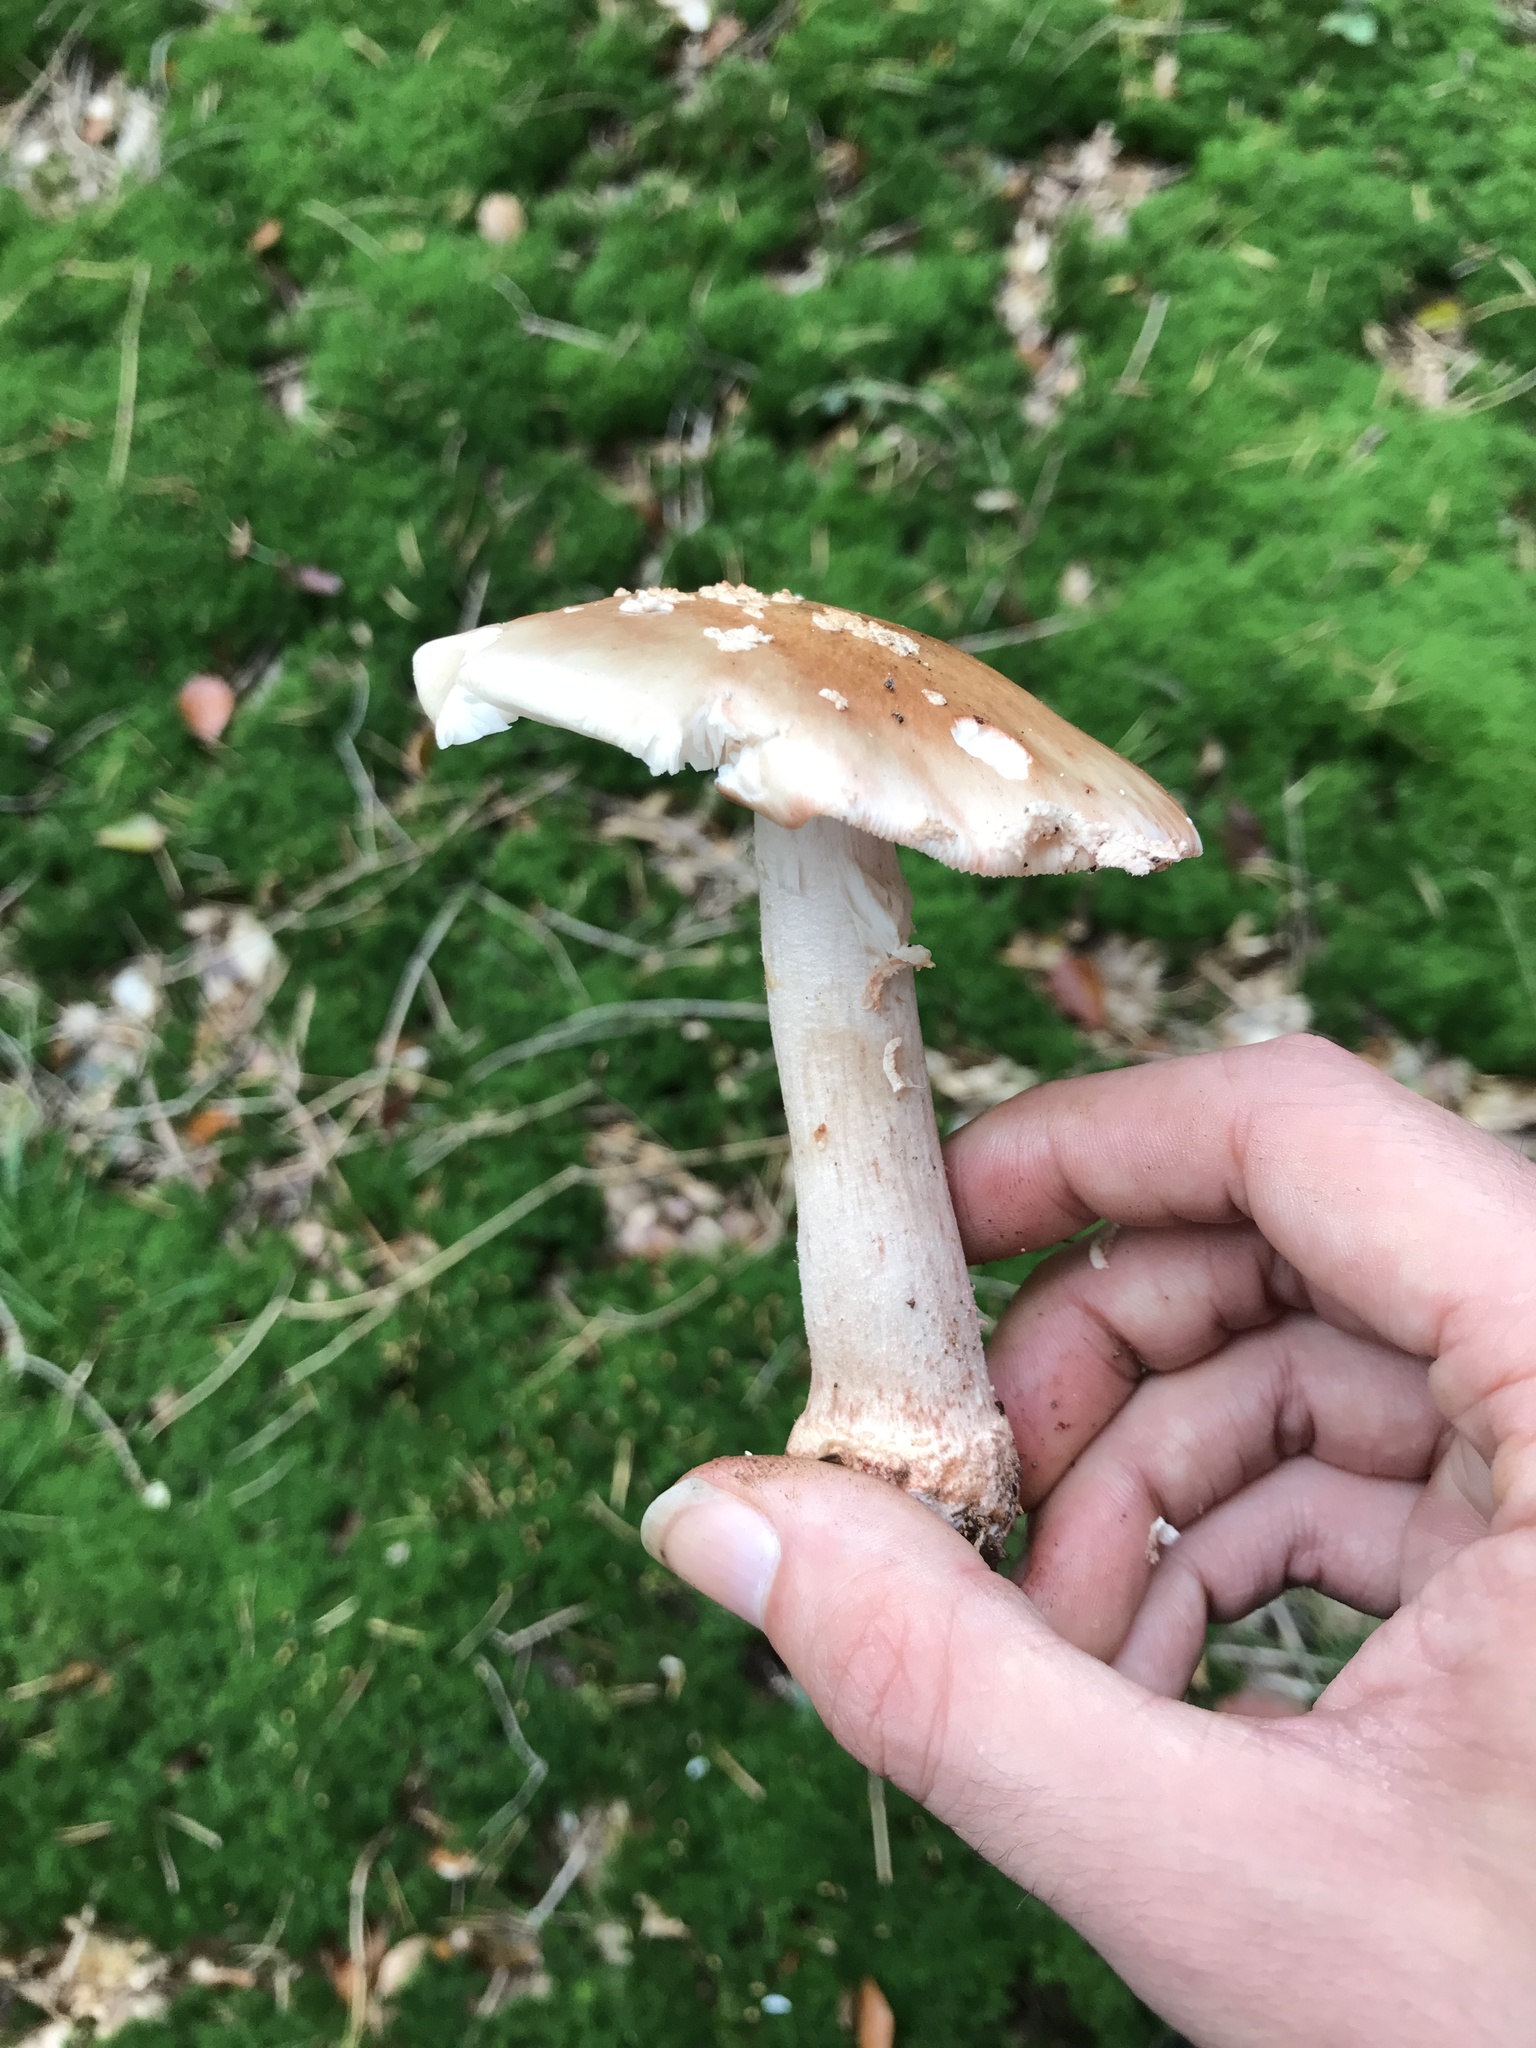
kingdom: Fungi
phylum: Basidiomycota
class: Agaricomycetes
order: Agaricales
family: Amanitaceae
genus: Amanita
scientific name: Amanita rubescens
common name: Blusher
